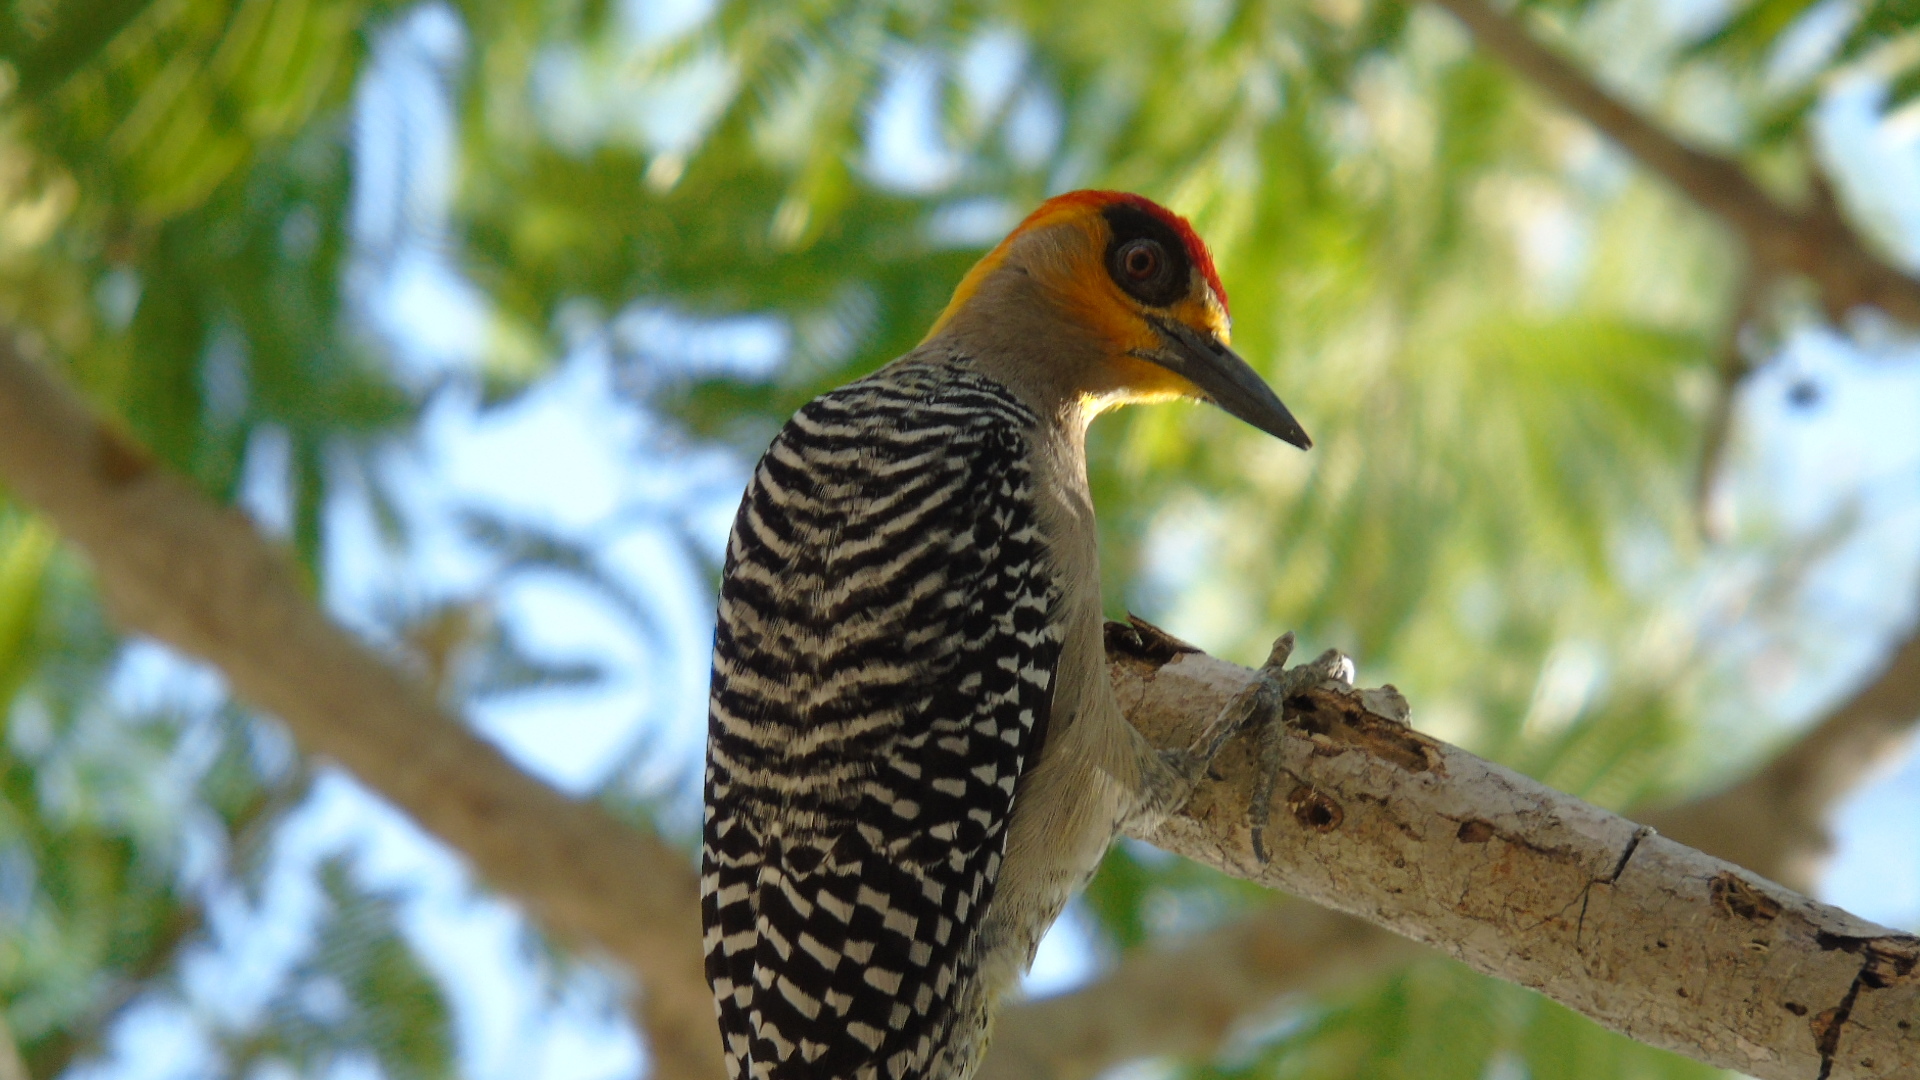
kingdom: Animalia
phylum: Chordata
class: Aves
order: Piciformes
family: Picidae
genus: Melanerpes
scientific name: Melanerpes chrysogenys
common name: Golden-cheeked woodpecker
